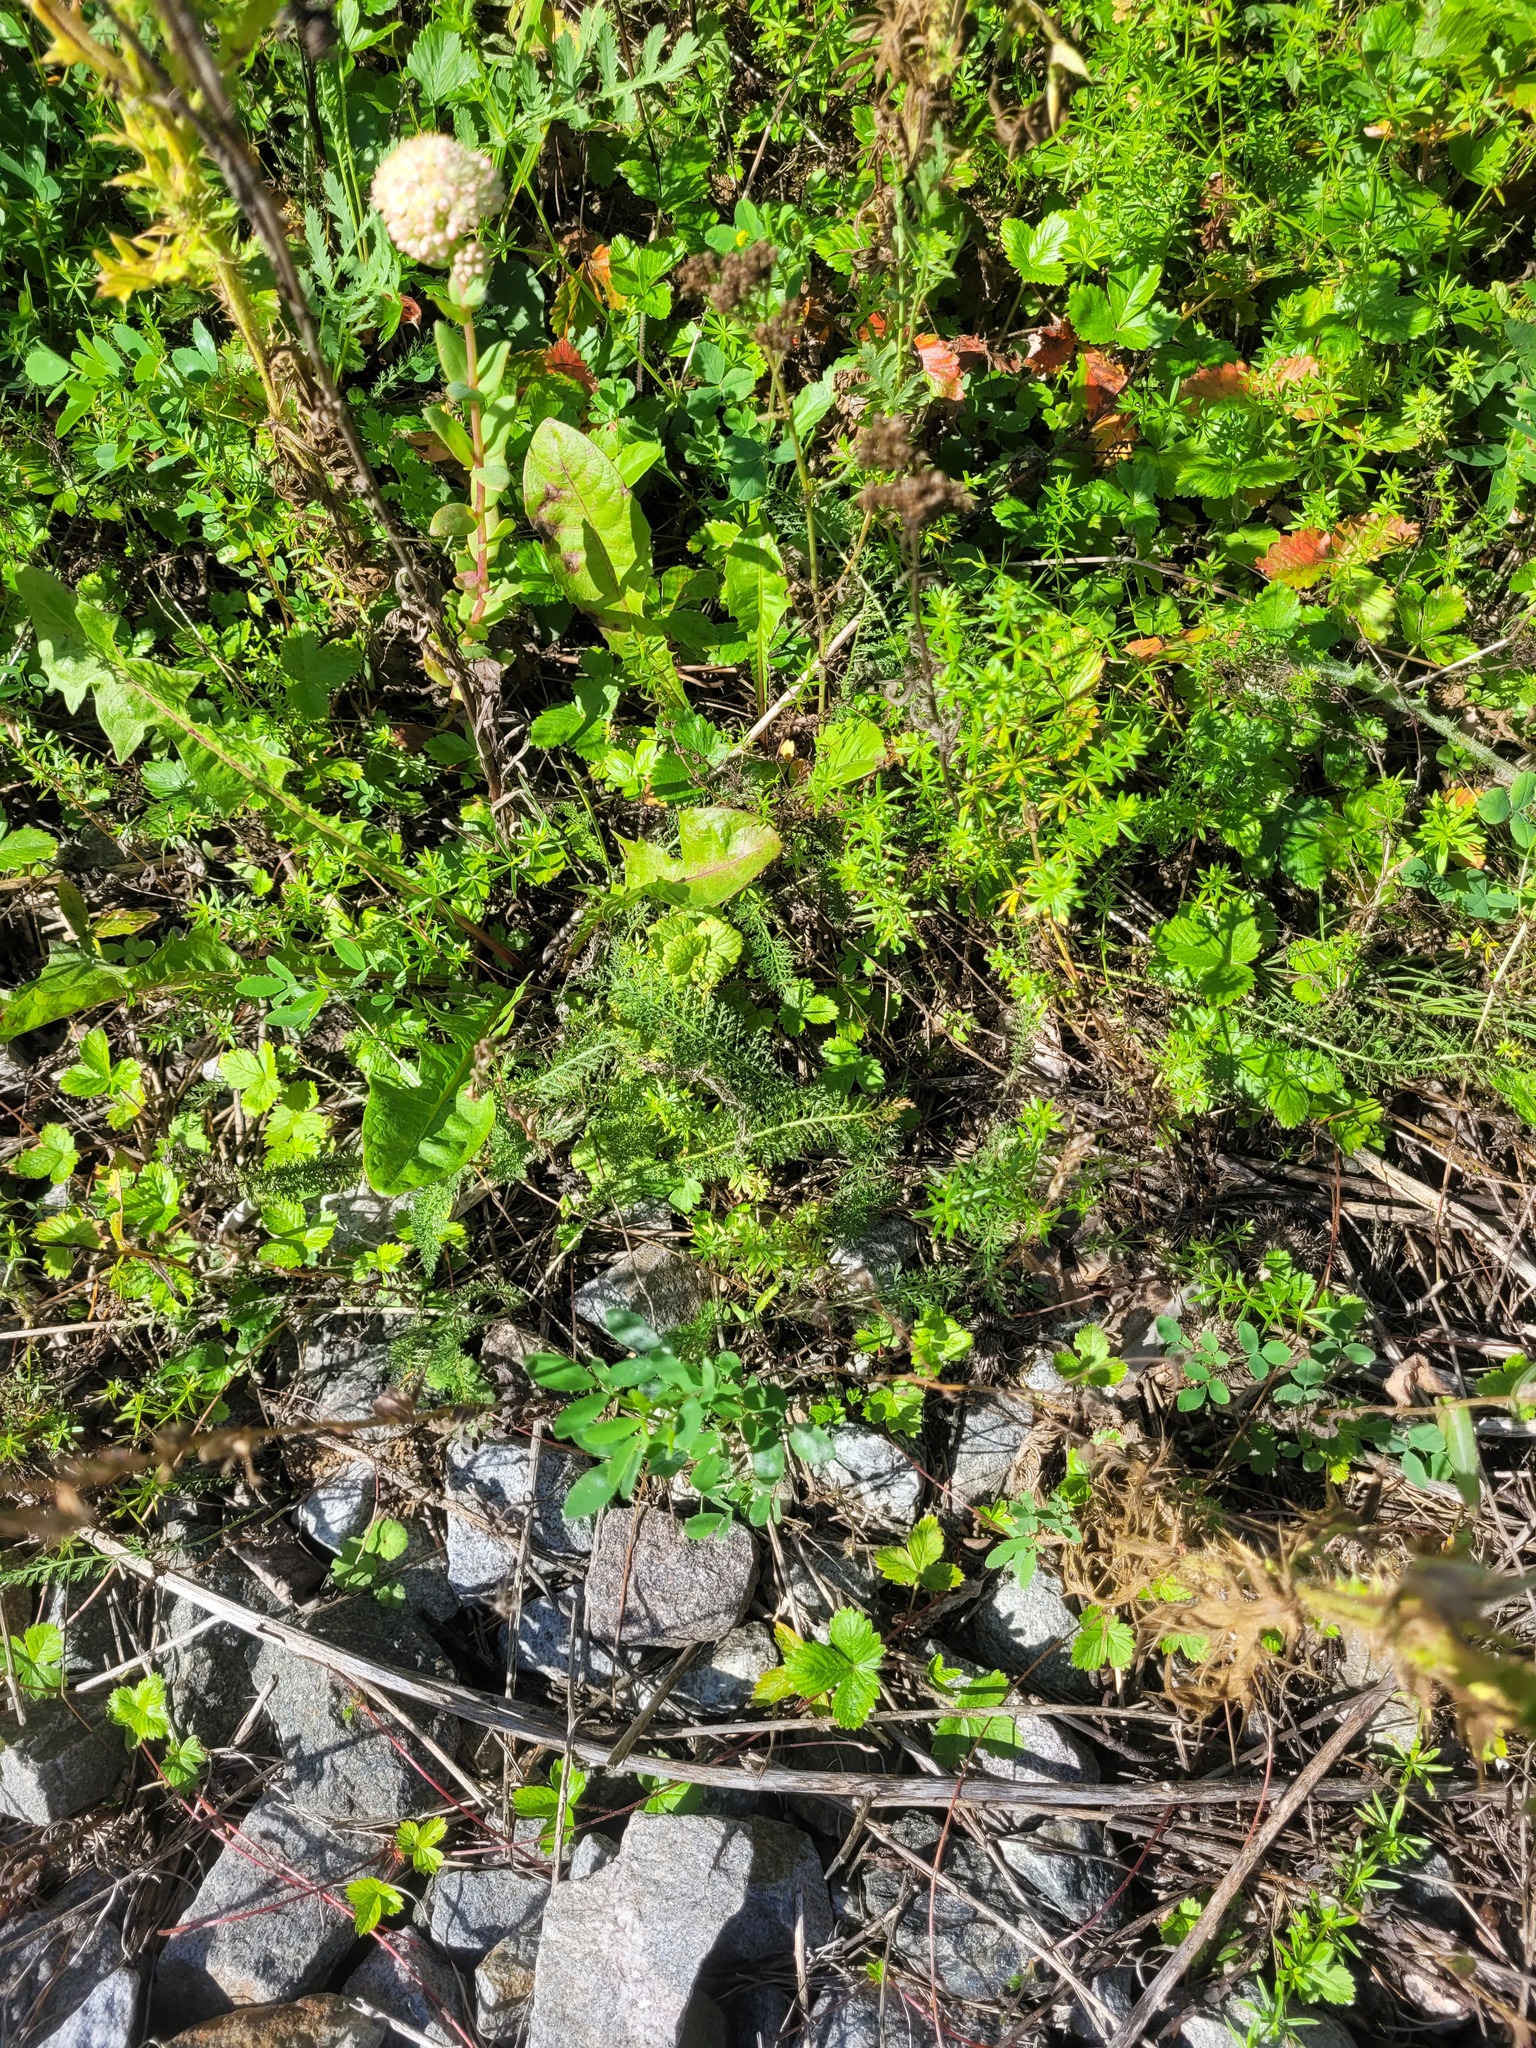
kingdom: Plantae
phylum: Tracheophyta
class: Magnoliopsida
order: Asterales
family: Asteraceae
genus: Achillea
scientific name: Achillea millefolium
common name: Yarrow
